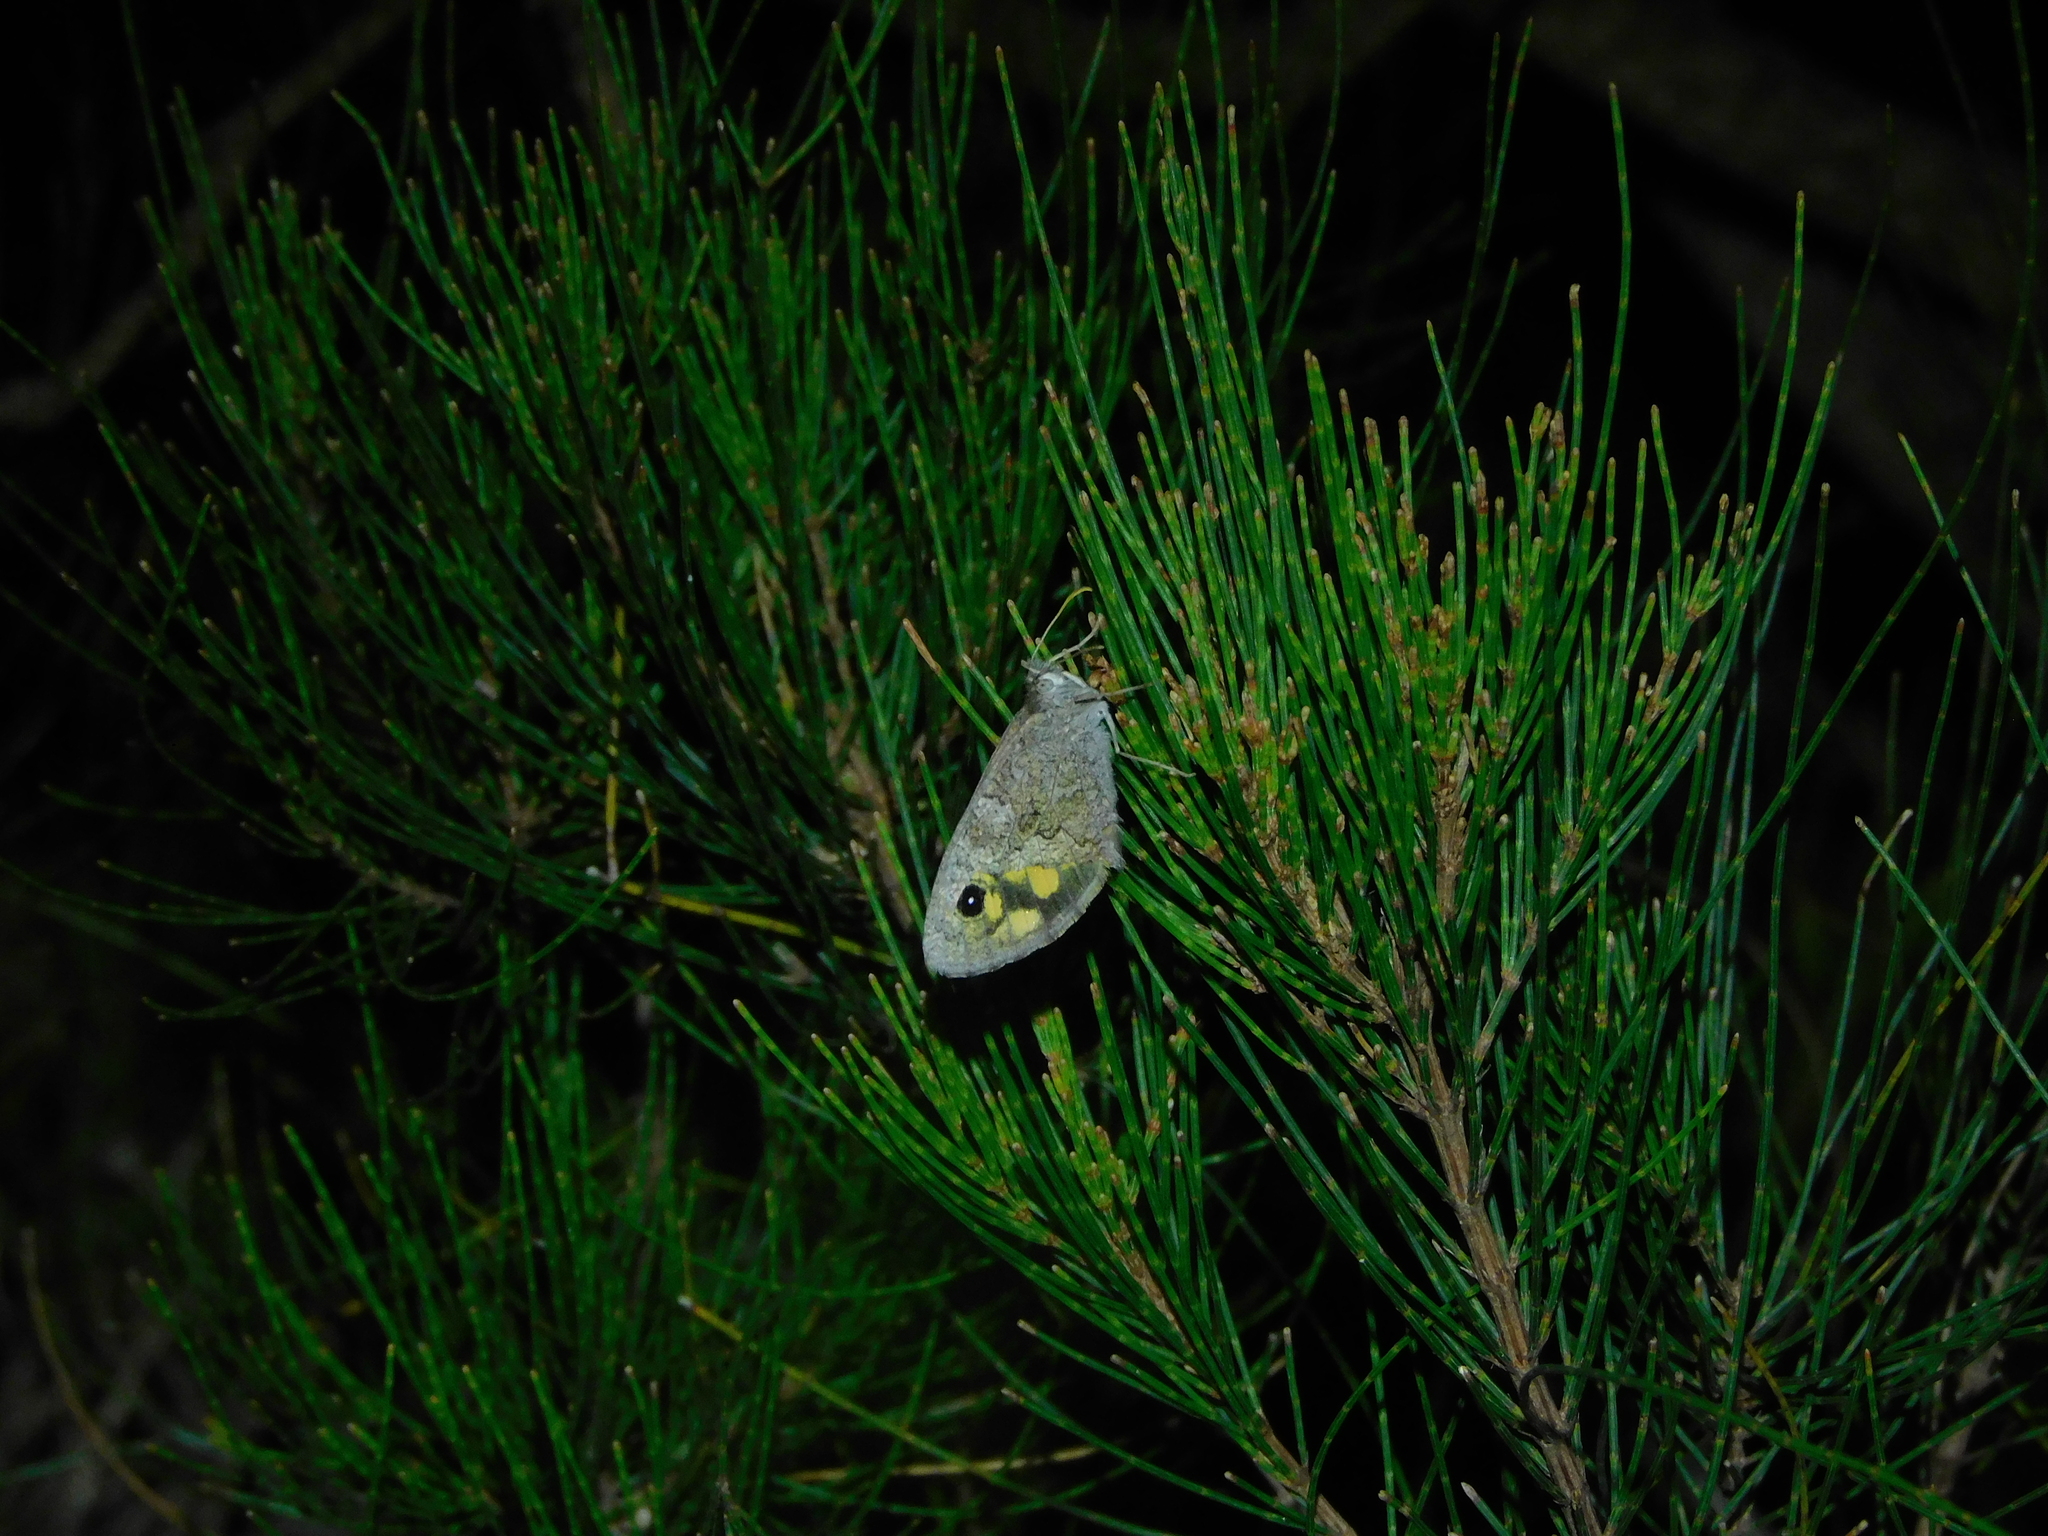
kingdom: Animalia
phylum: Arthropoda
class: Insecta
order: Lepidoptera
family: Nymphalidae
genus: Geitoneura
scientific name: Geitoneura klugii
